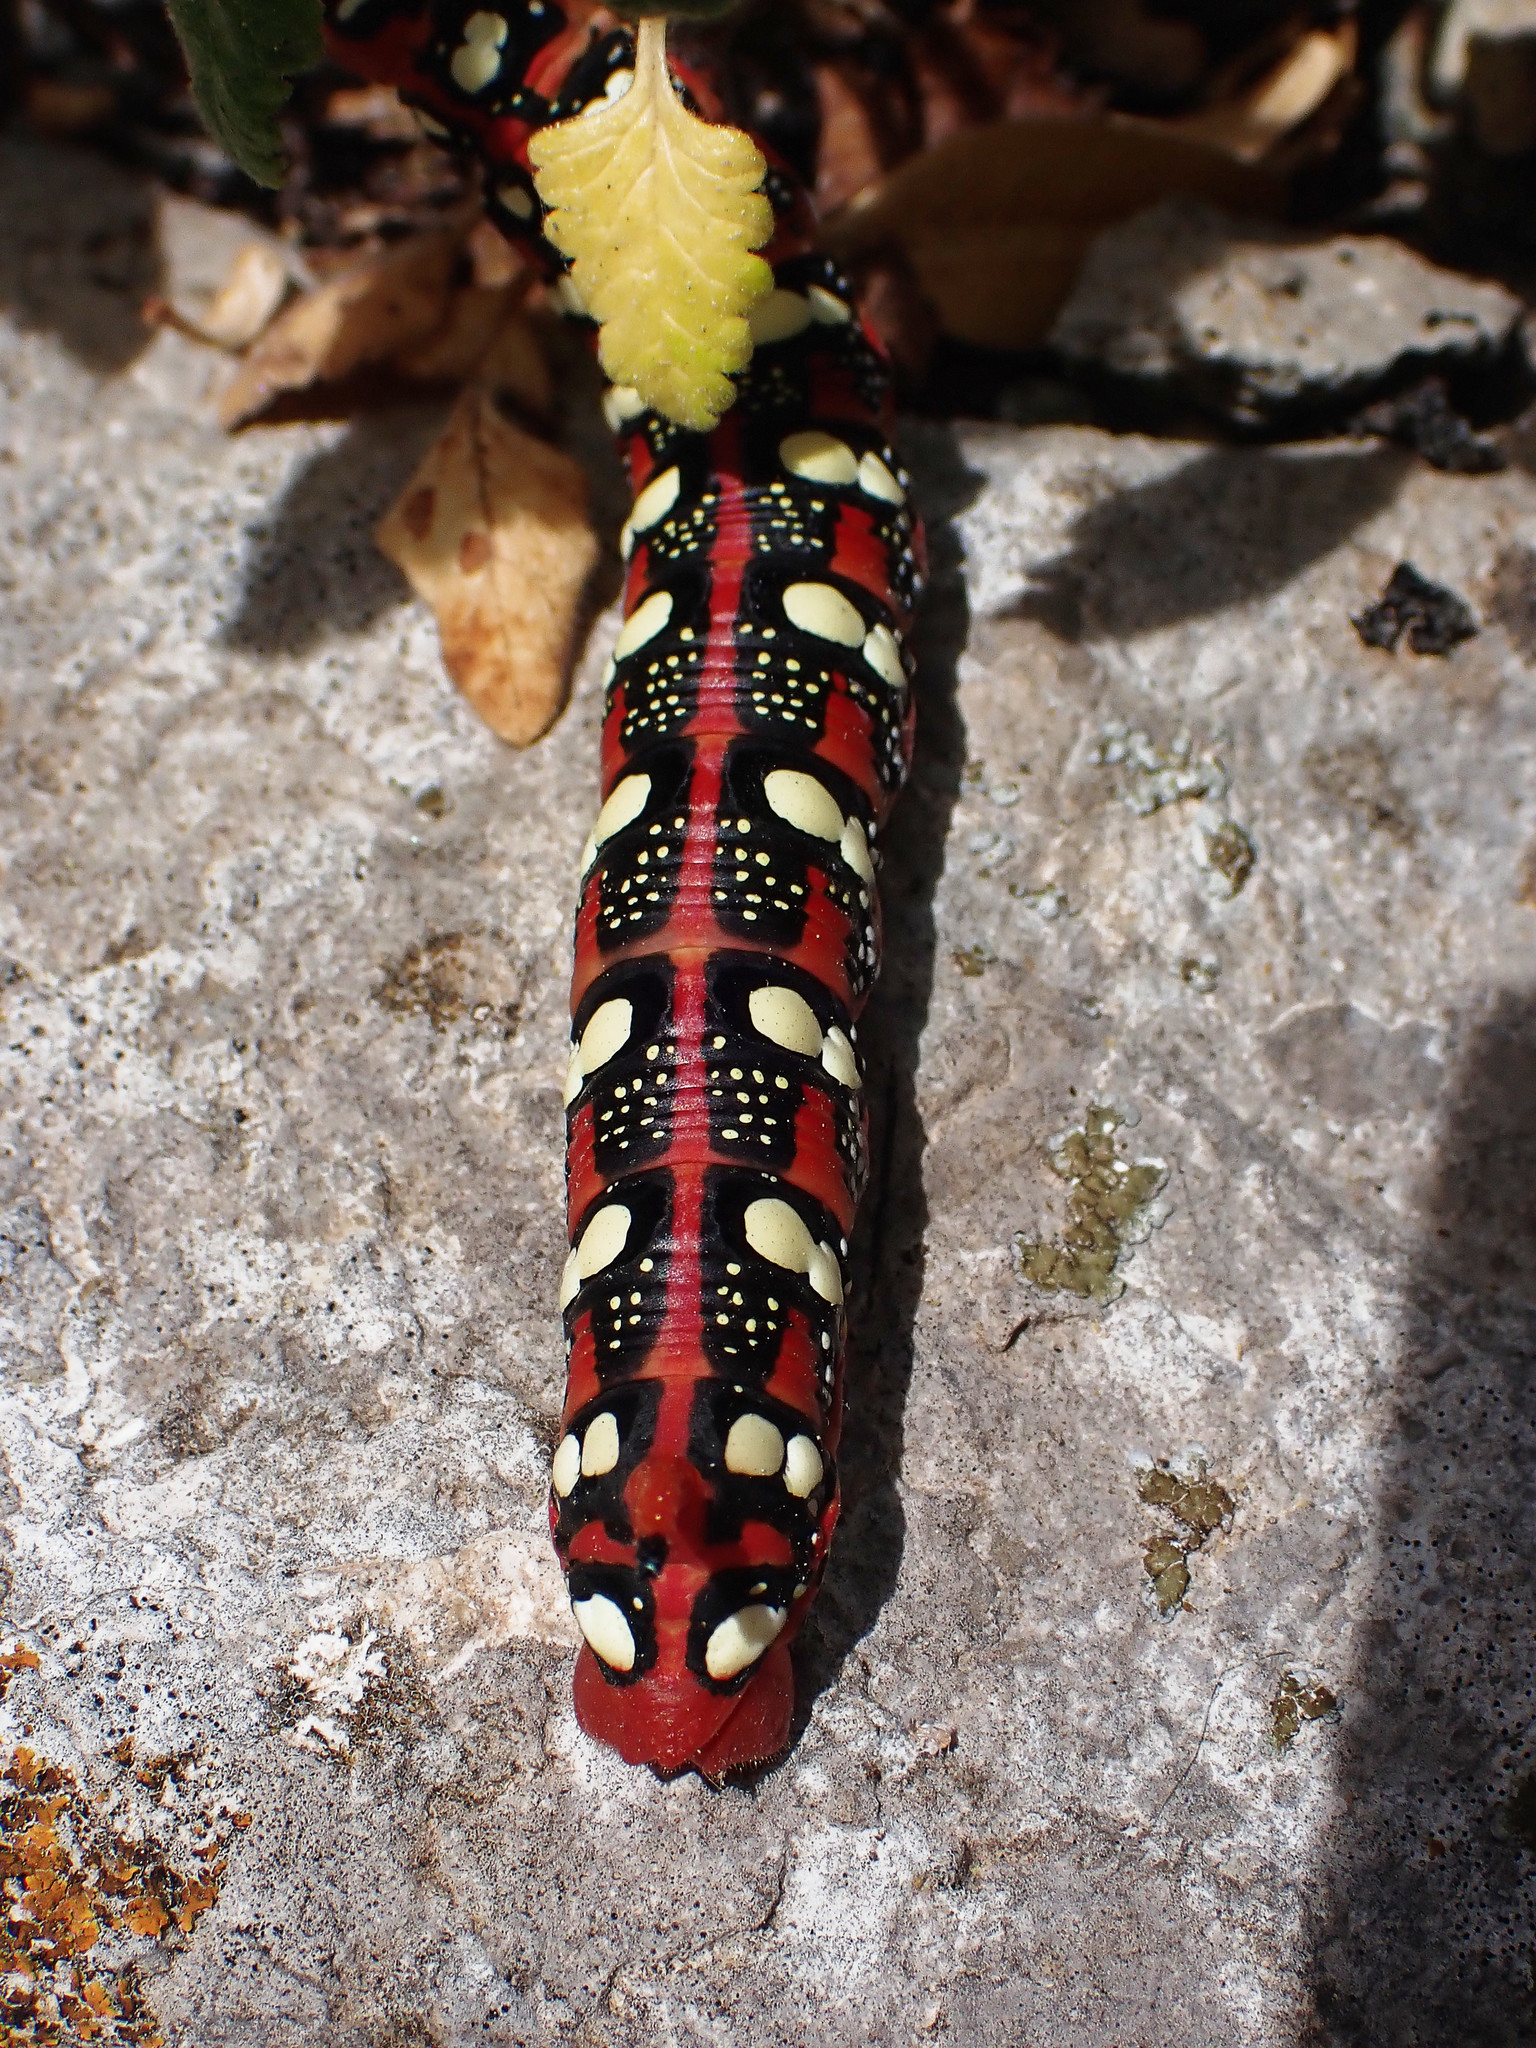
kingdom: Animalia
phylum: Arthropoda
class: Insecta
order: Lepidoptera
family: Sphingidae
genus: Hyles
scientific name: Hyles euphorbiae
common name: Spurge hawk-moth
